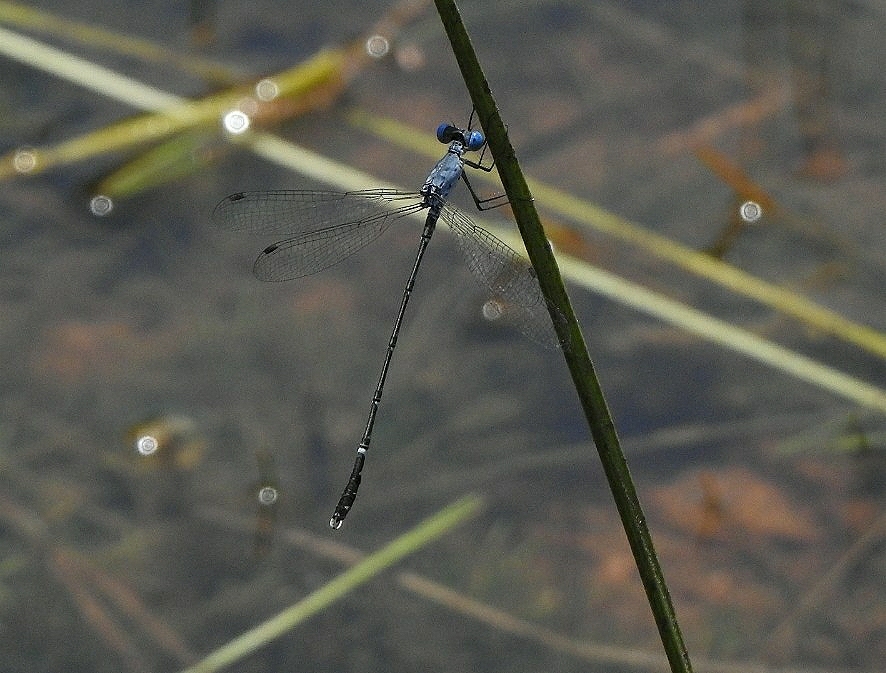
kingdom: Animalia
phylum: Arthropoda
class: Insecta
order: Odonata
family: Lestidae
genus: Lestes
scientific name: Lestes praemorsus
